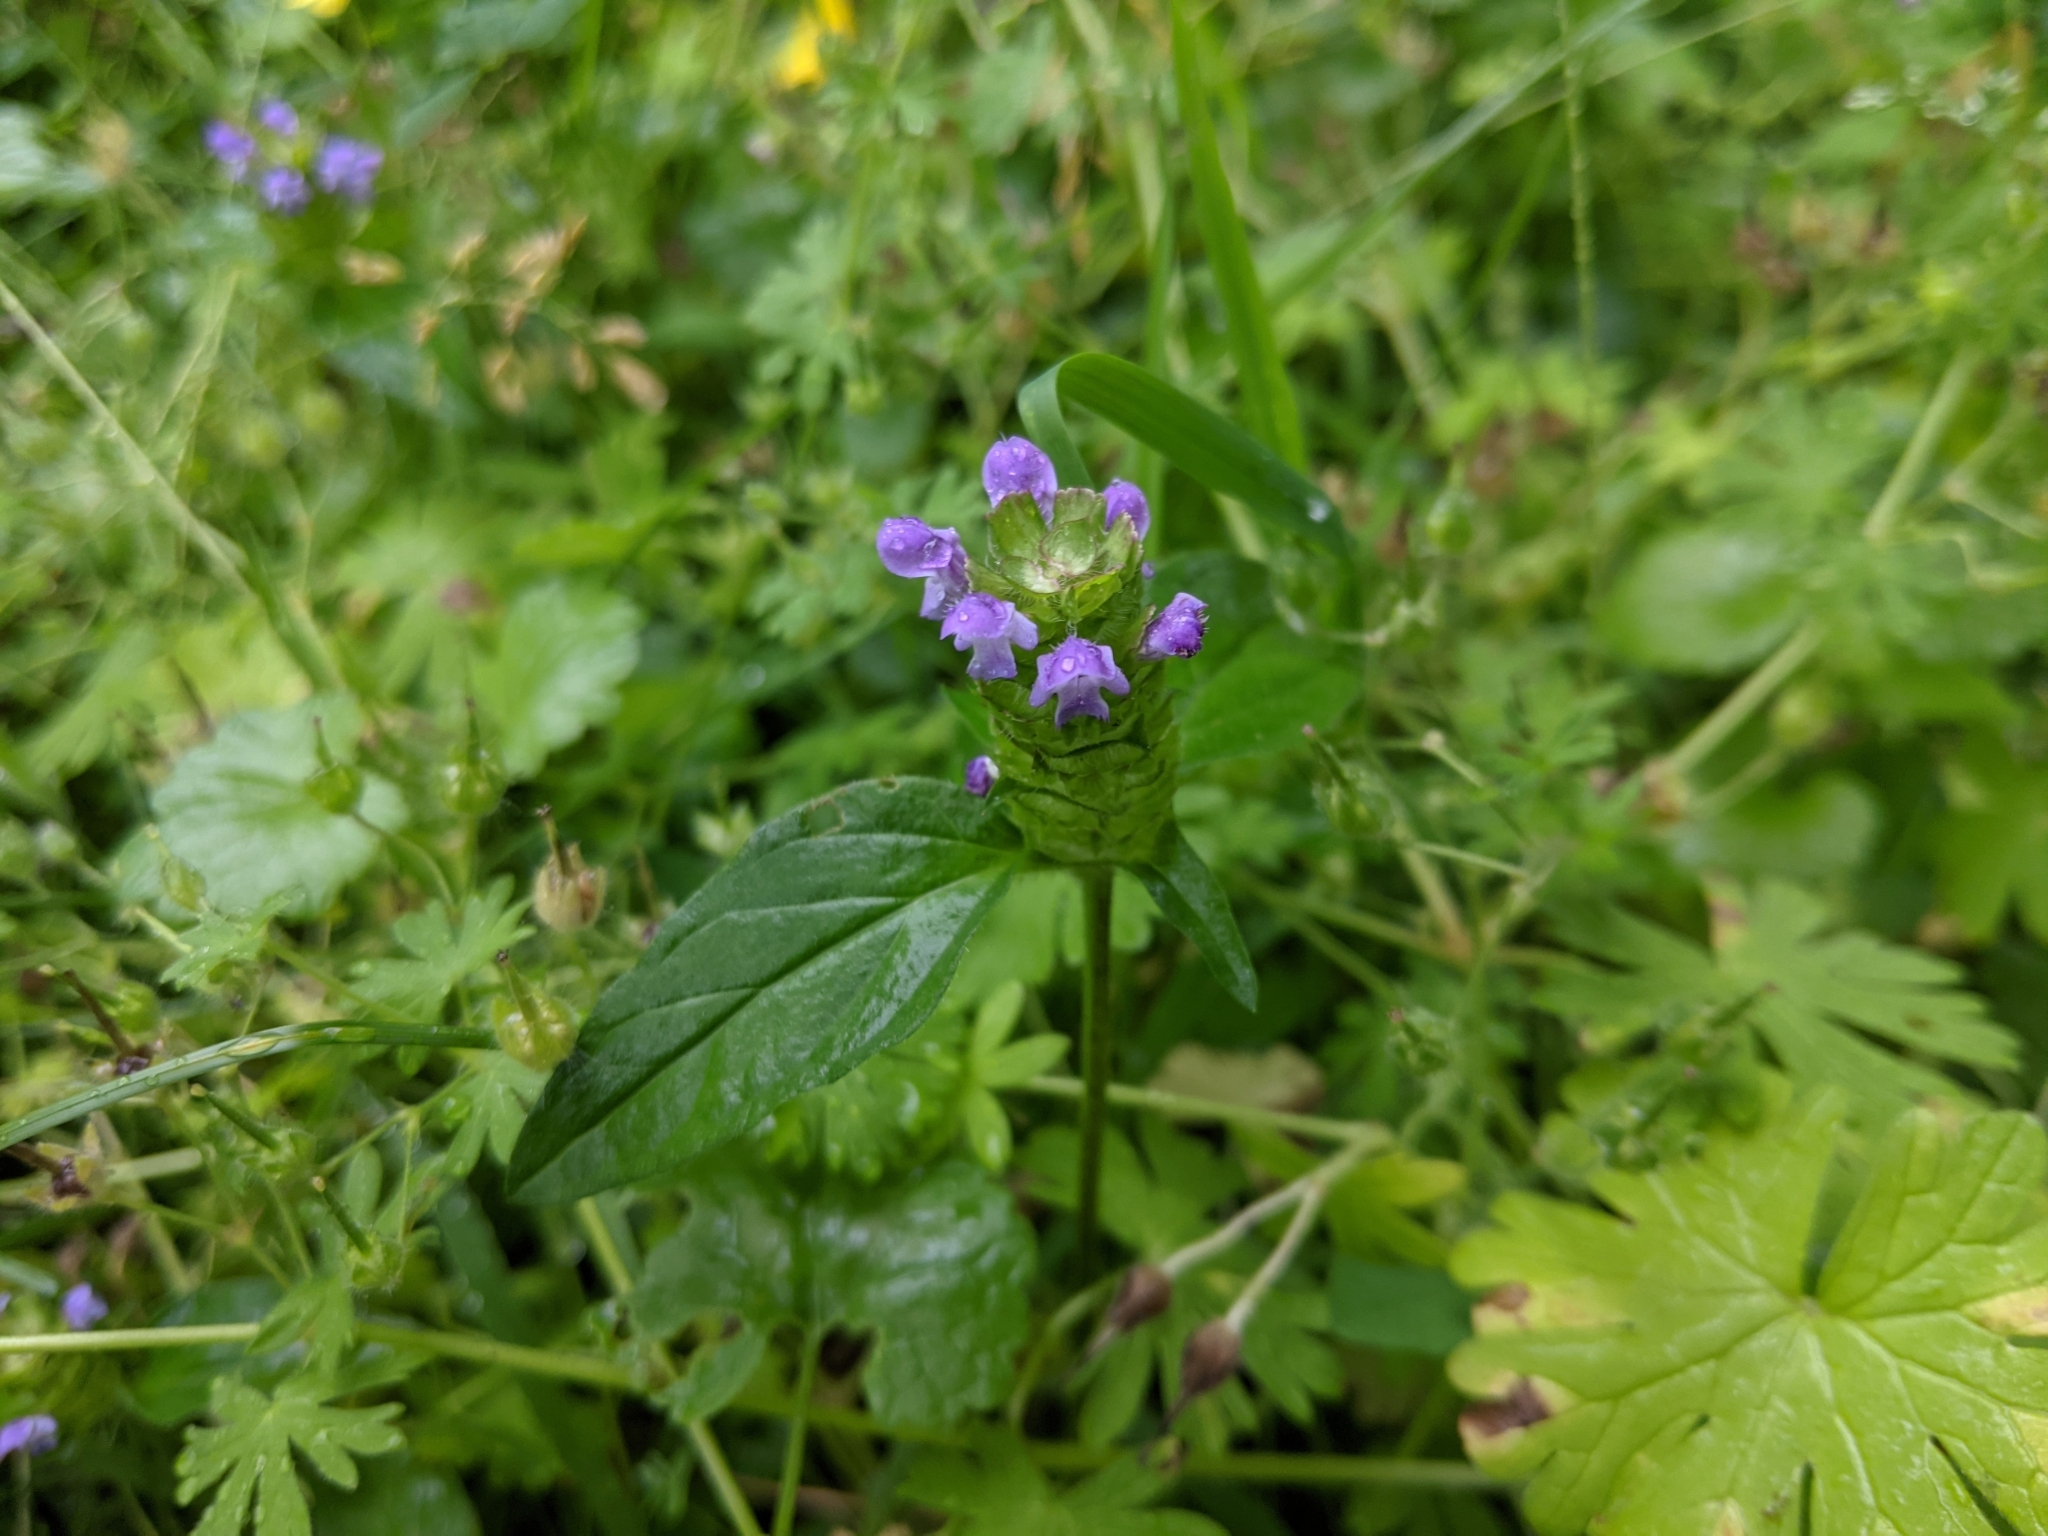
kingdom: Plantae
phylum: Tracheophyta
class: Magnoliopsida
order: Lamiales
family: Lamiaceae
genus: Prunella
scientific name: Prunella vulgaris
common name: Heal-all
